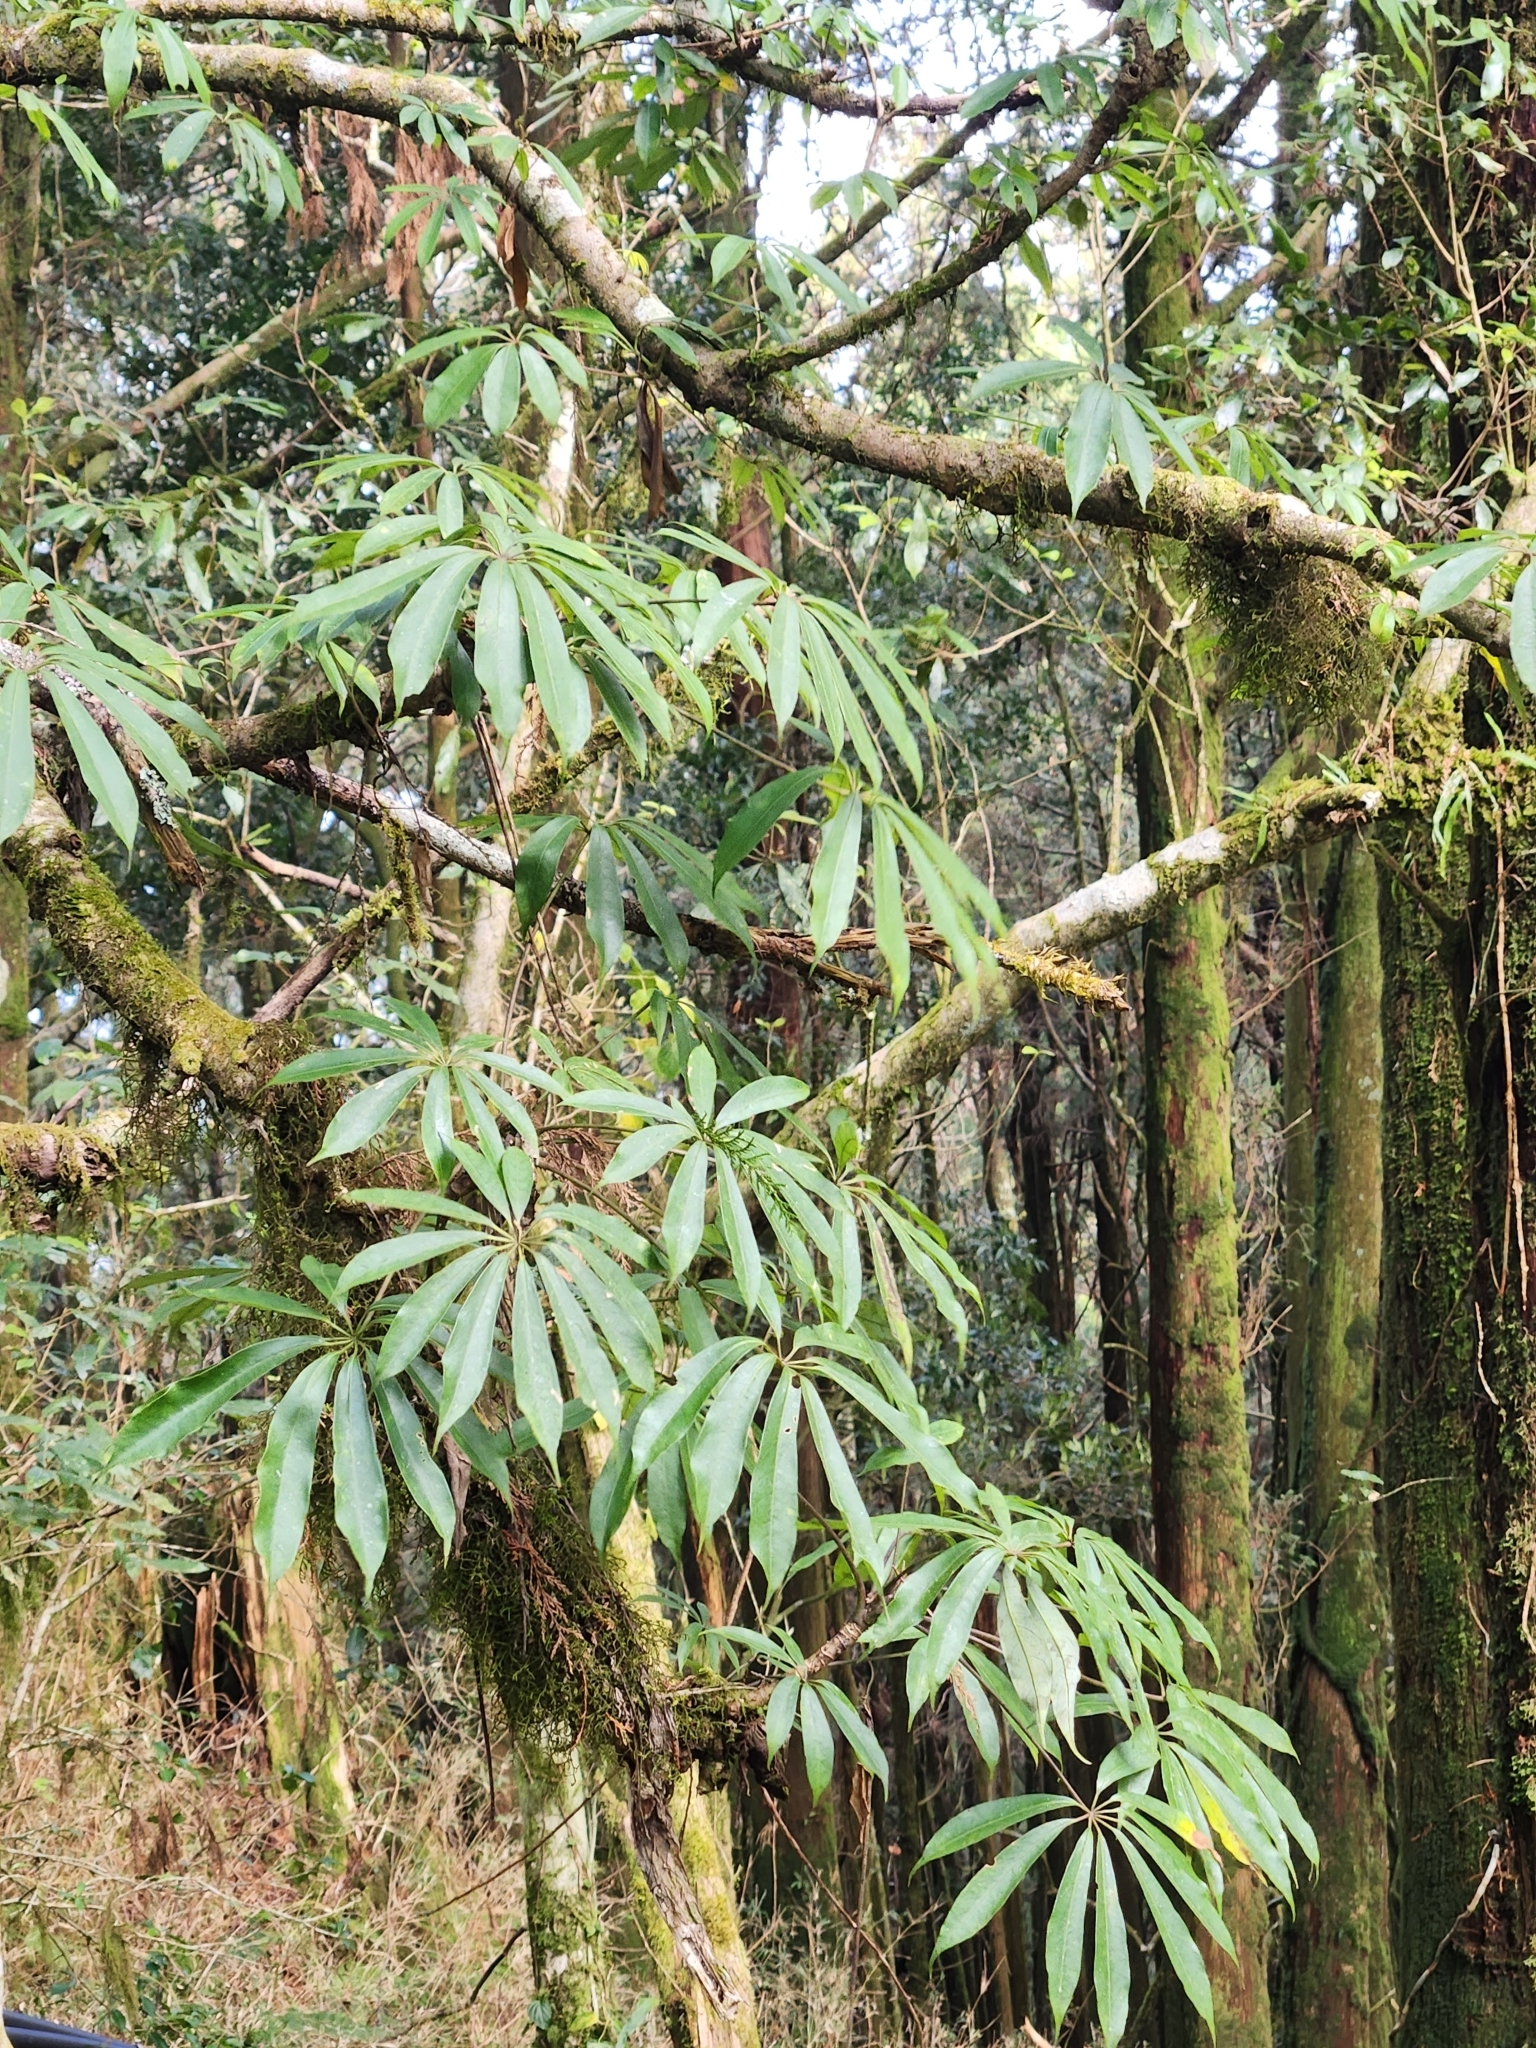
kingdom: Plantae
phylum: Tracheophyta
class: Magnoliopsida
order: Apiales
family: Araliaceae
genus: Heptapleurum
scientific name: Heptapleurum taiwanianum
